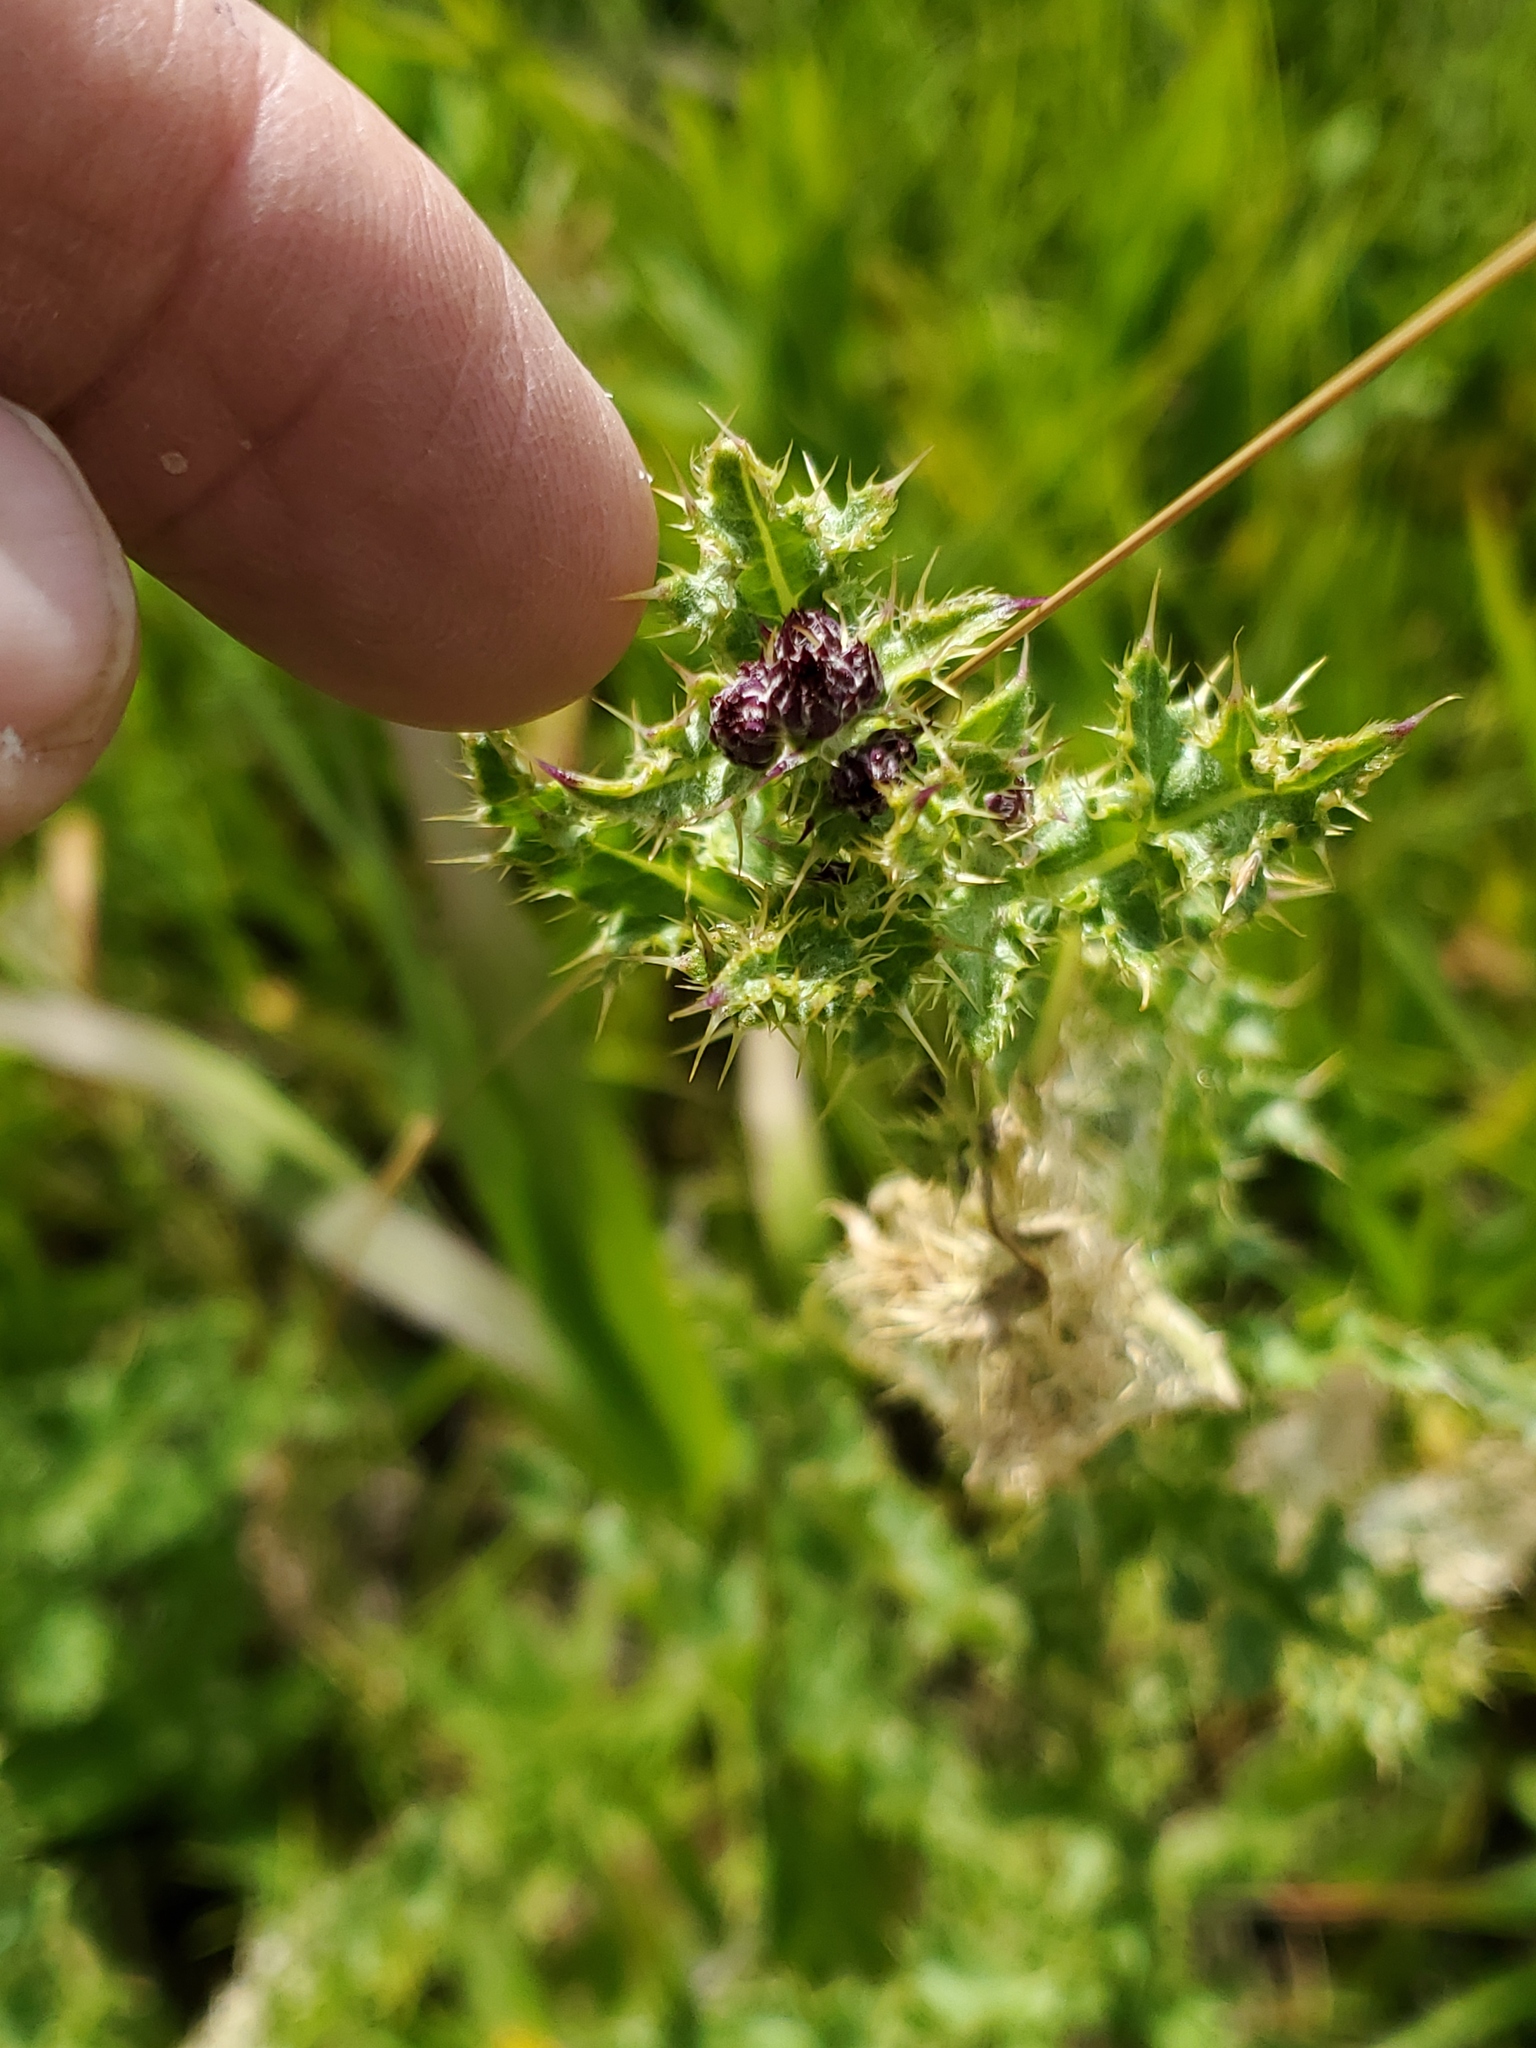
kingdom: Plantae
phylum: Tracheophyta
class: Magnoliopsida
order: Asterales
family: Asteraceae
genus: Cirsium
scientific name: Cirsium arvense
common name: Creeping thistle
